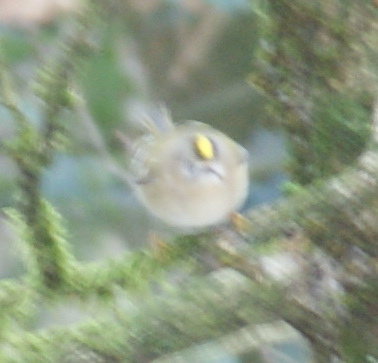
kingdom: Animalia
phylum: Chordata
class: Aves
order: Passeriformes
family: Regulidae
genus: Regulus
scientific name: Regulus regulus
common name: Goldcrest
